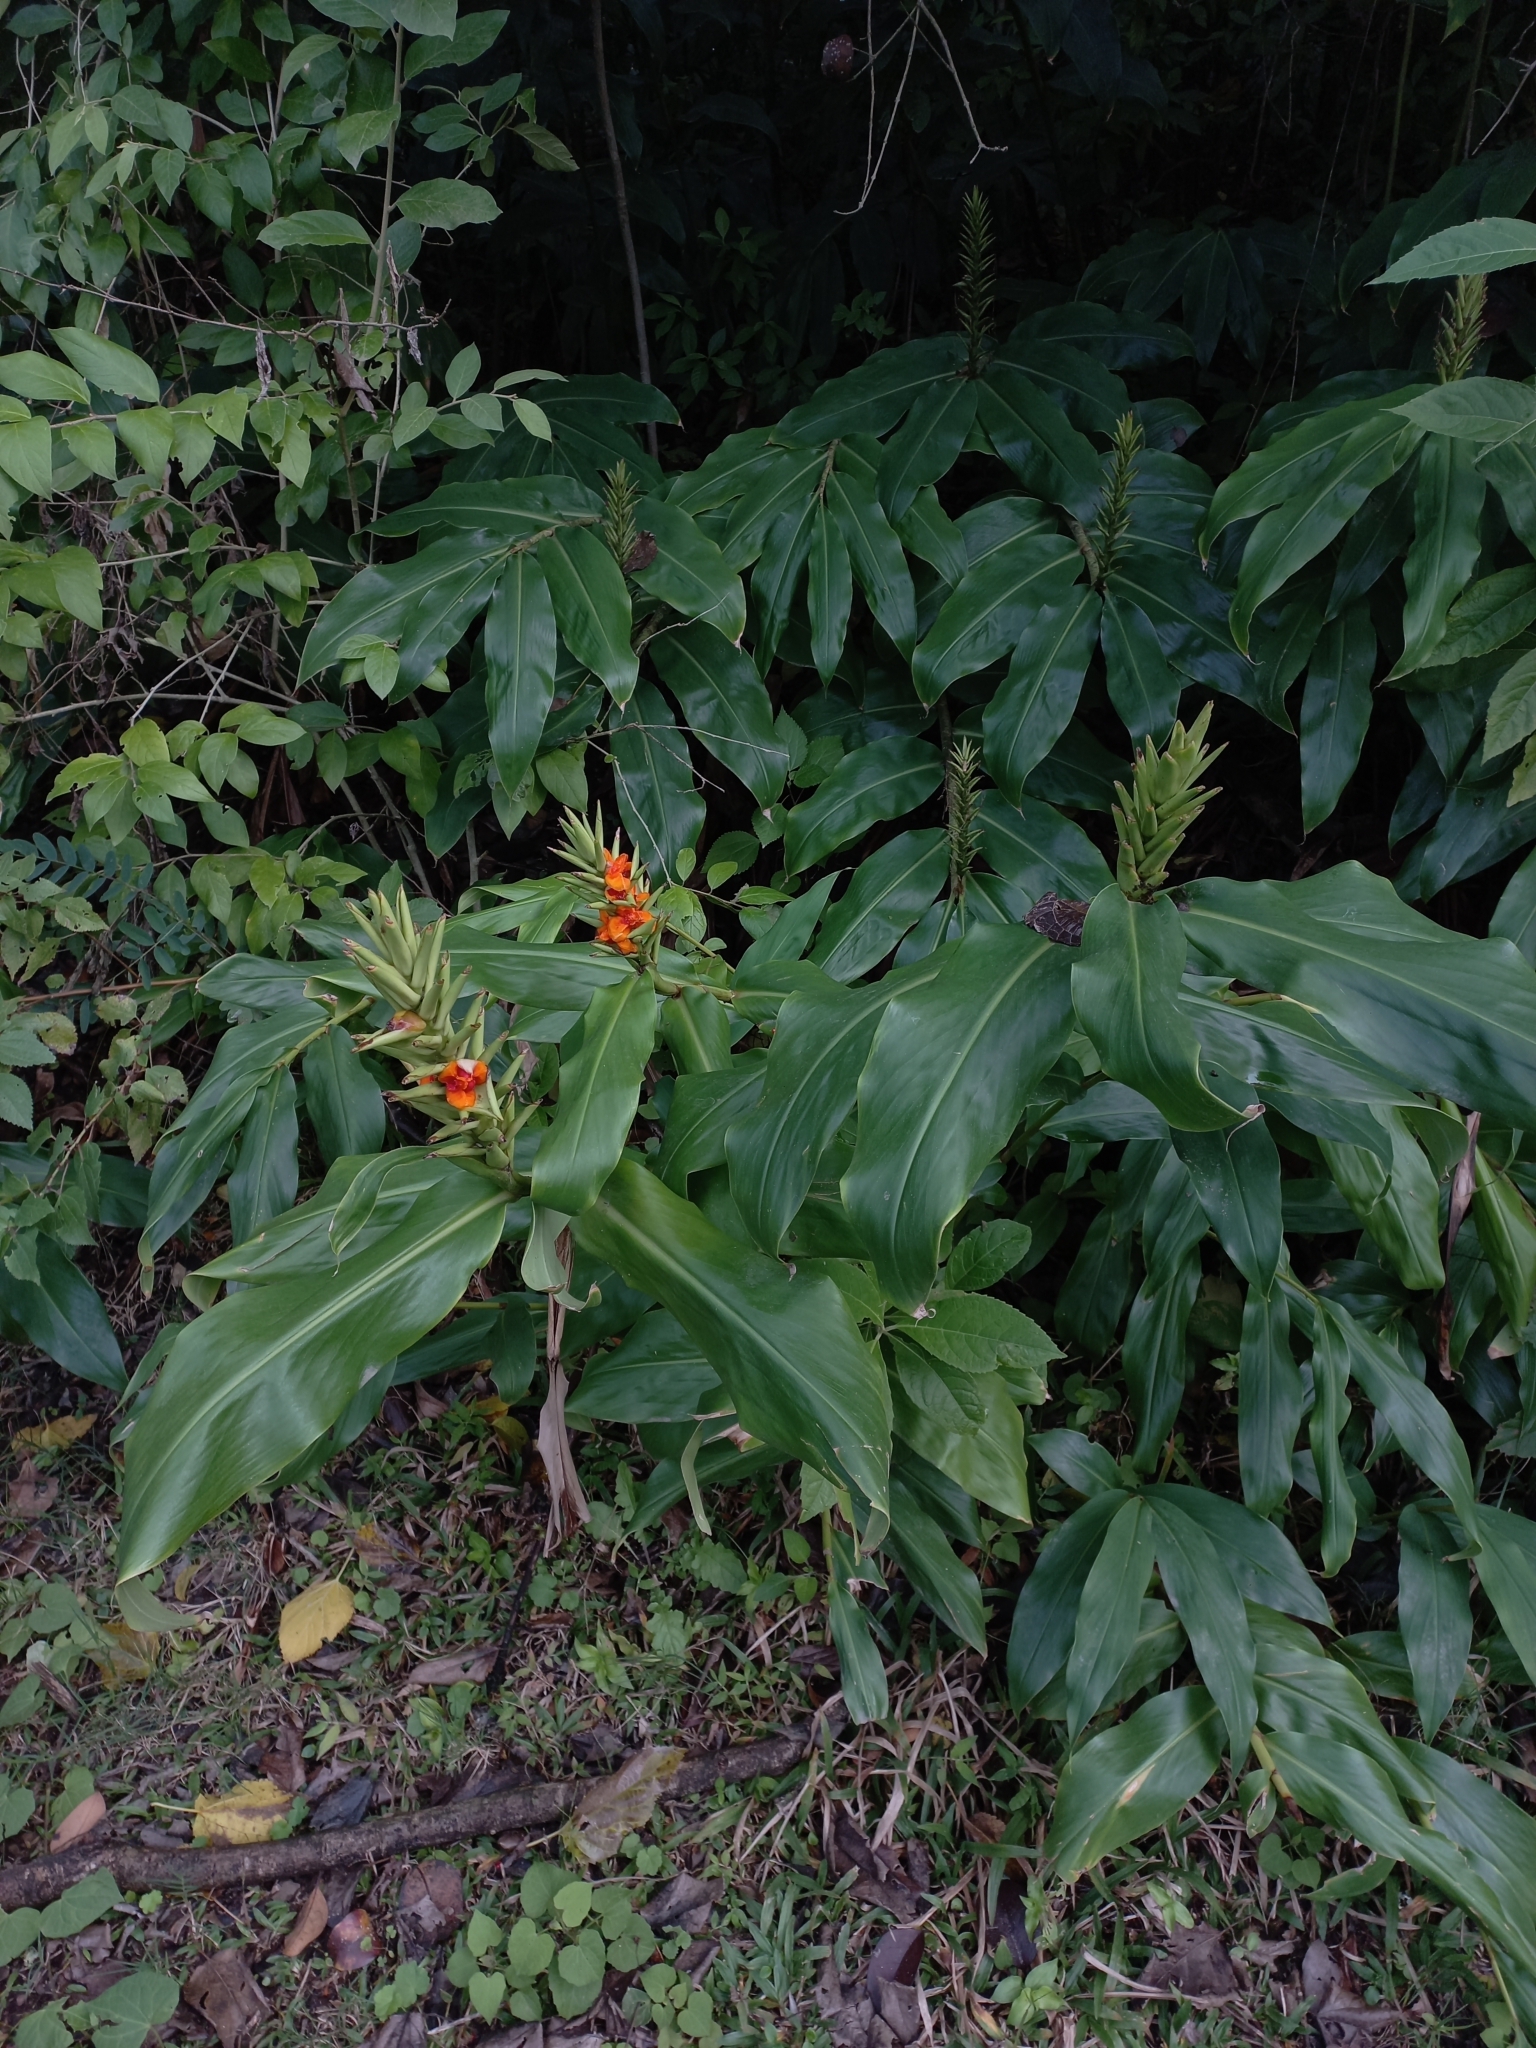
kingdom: Plantae
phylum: Tracheophyta
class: Liliopsida
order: Zingiberales
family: Zingiberaceae
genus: Hedychium
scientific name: Hedychium gardnerianum
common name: Himalayan ginger
